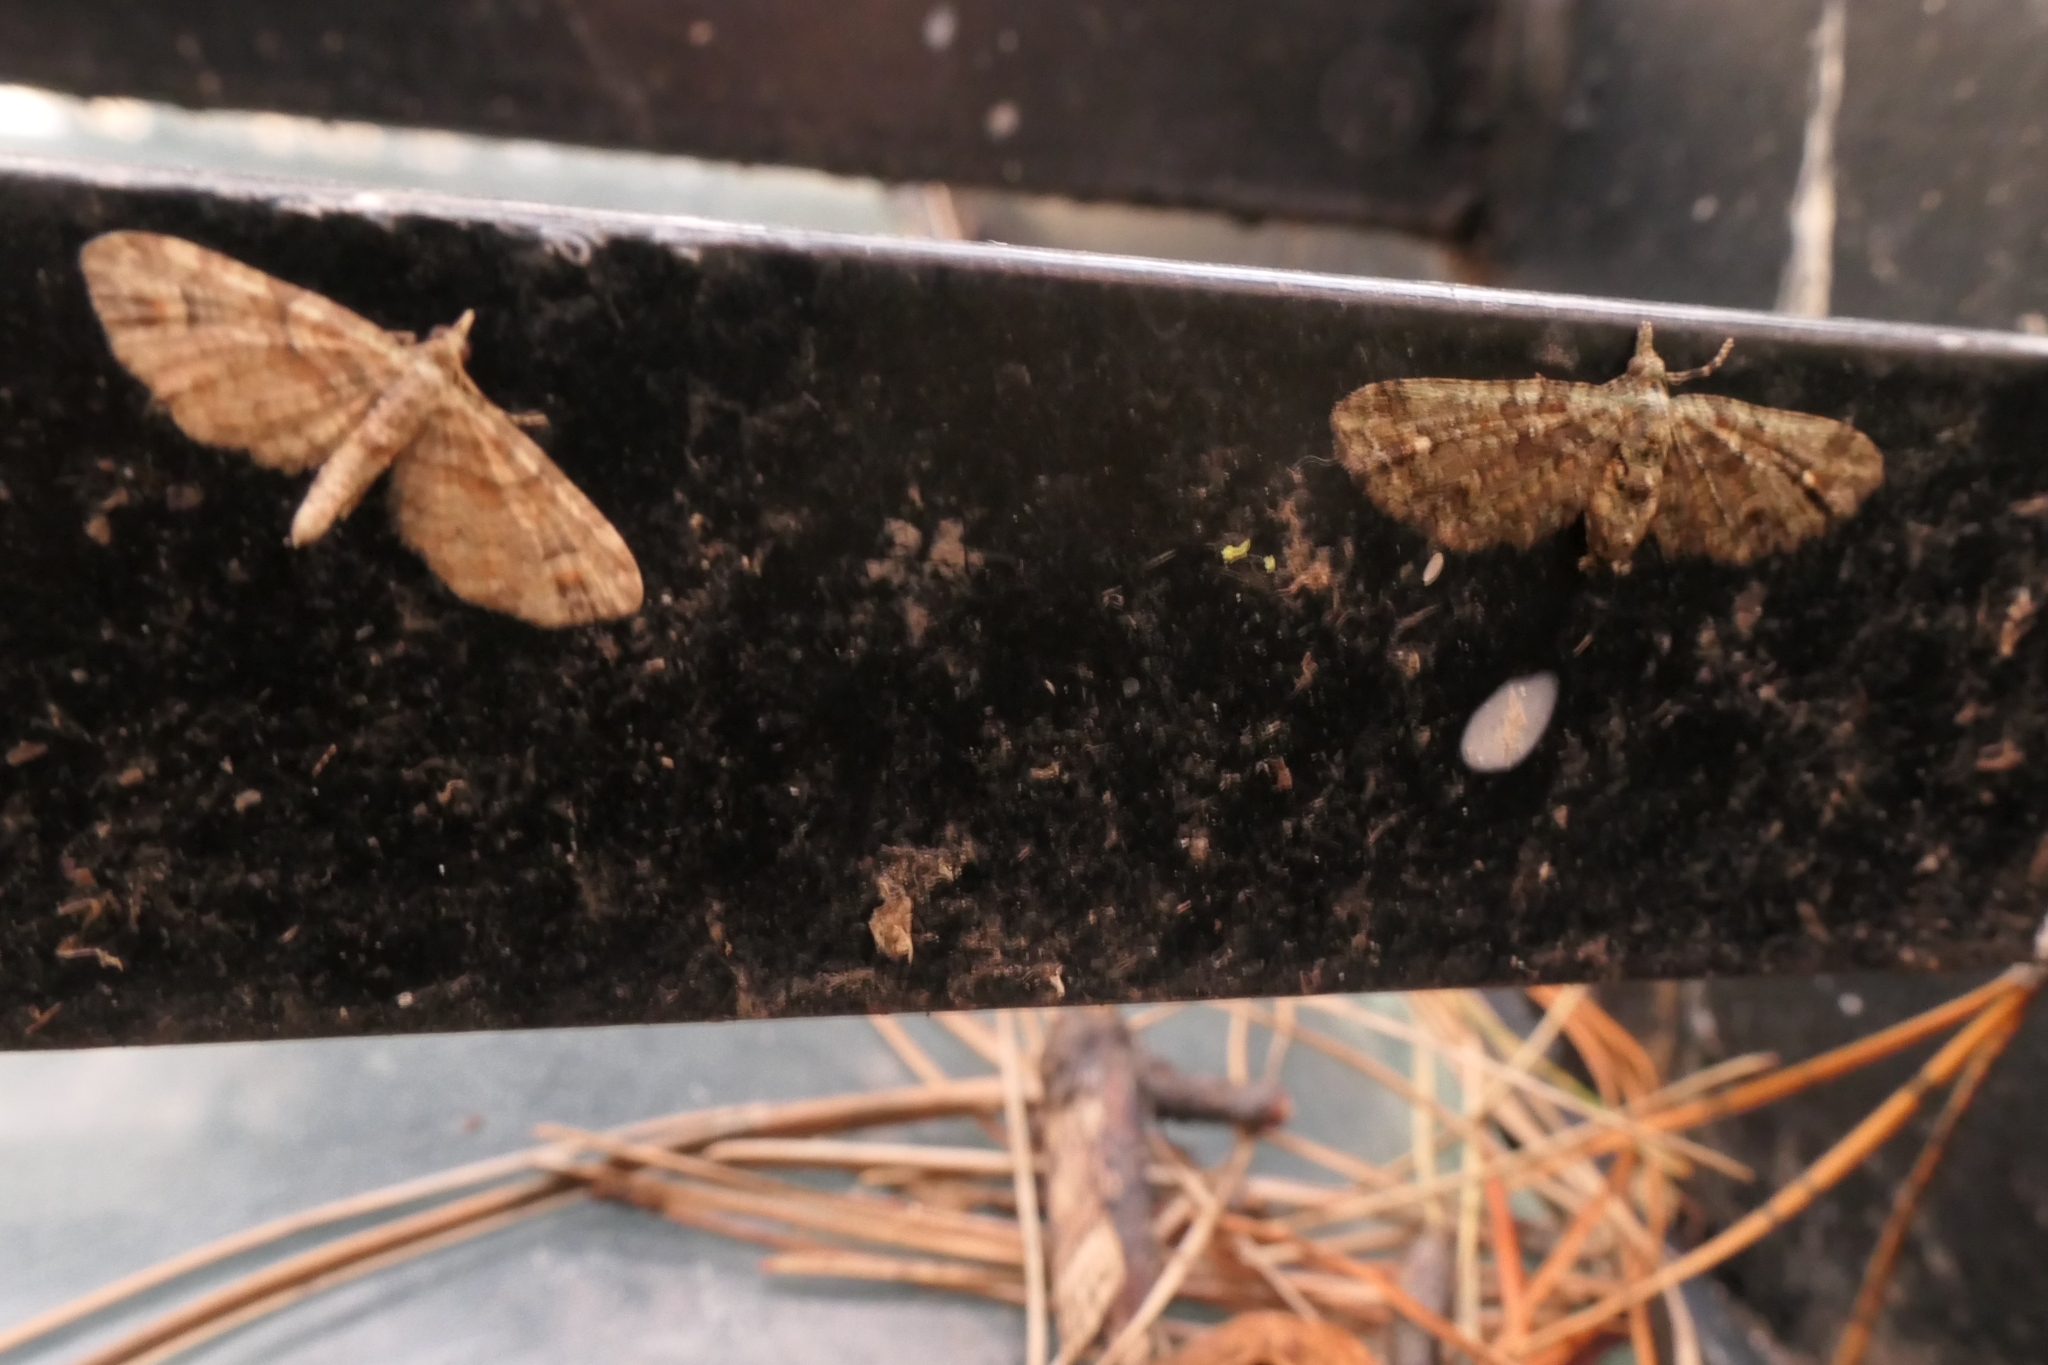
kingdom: Animalia
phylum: Arthropoda
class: Insecta
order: Lepidoptera
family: Geometridae
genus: Pasiphilodes
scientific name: Pasiphilodes testulata
